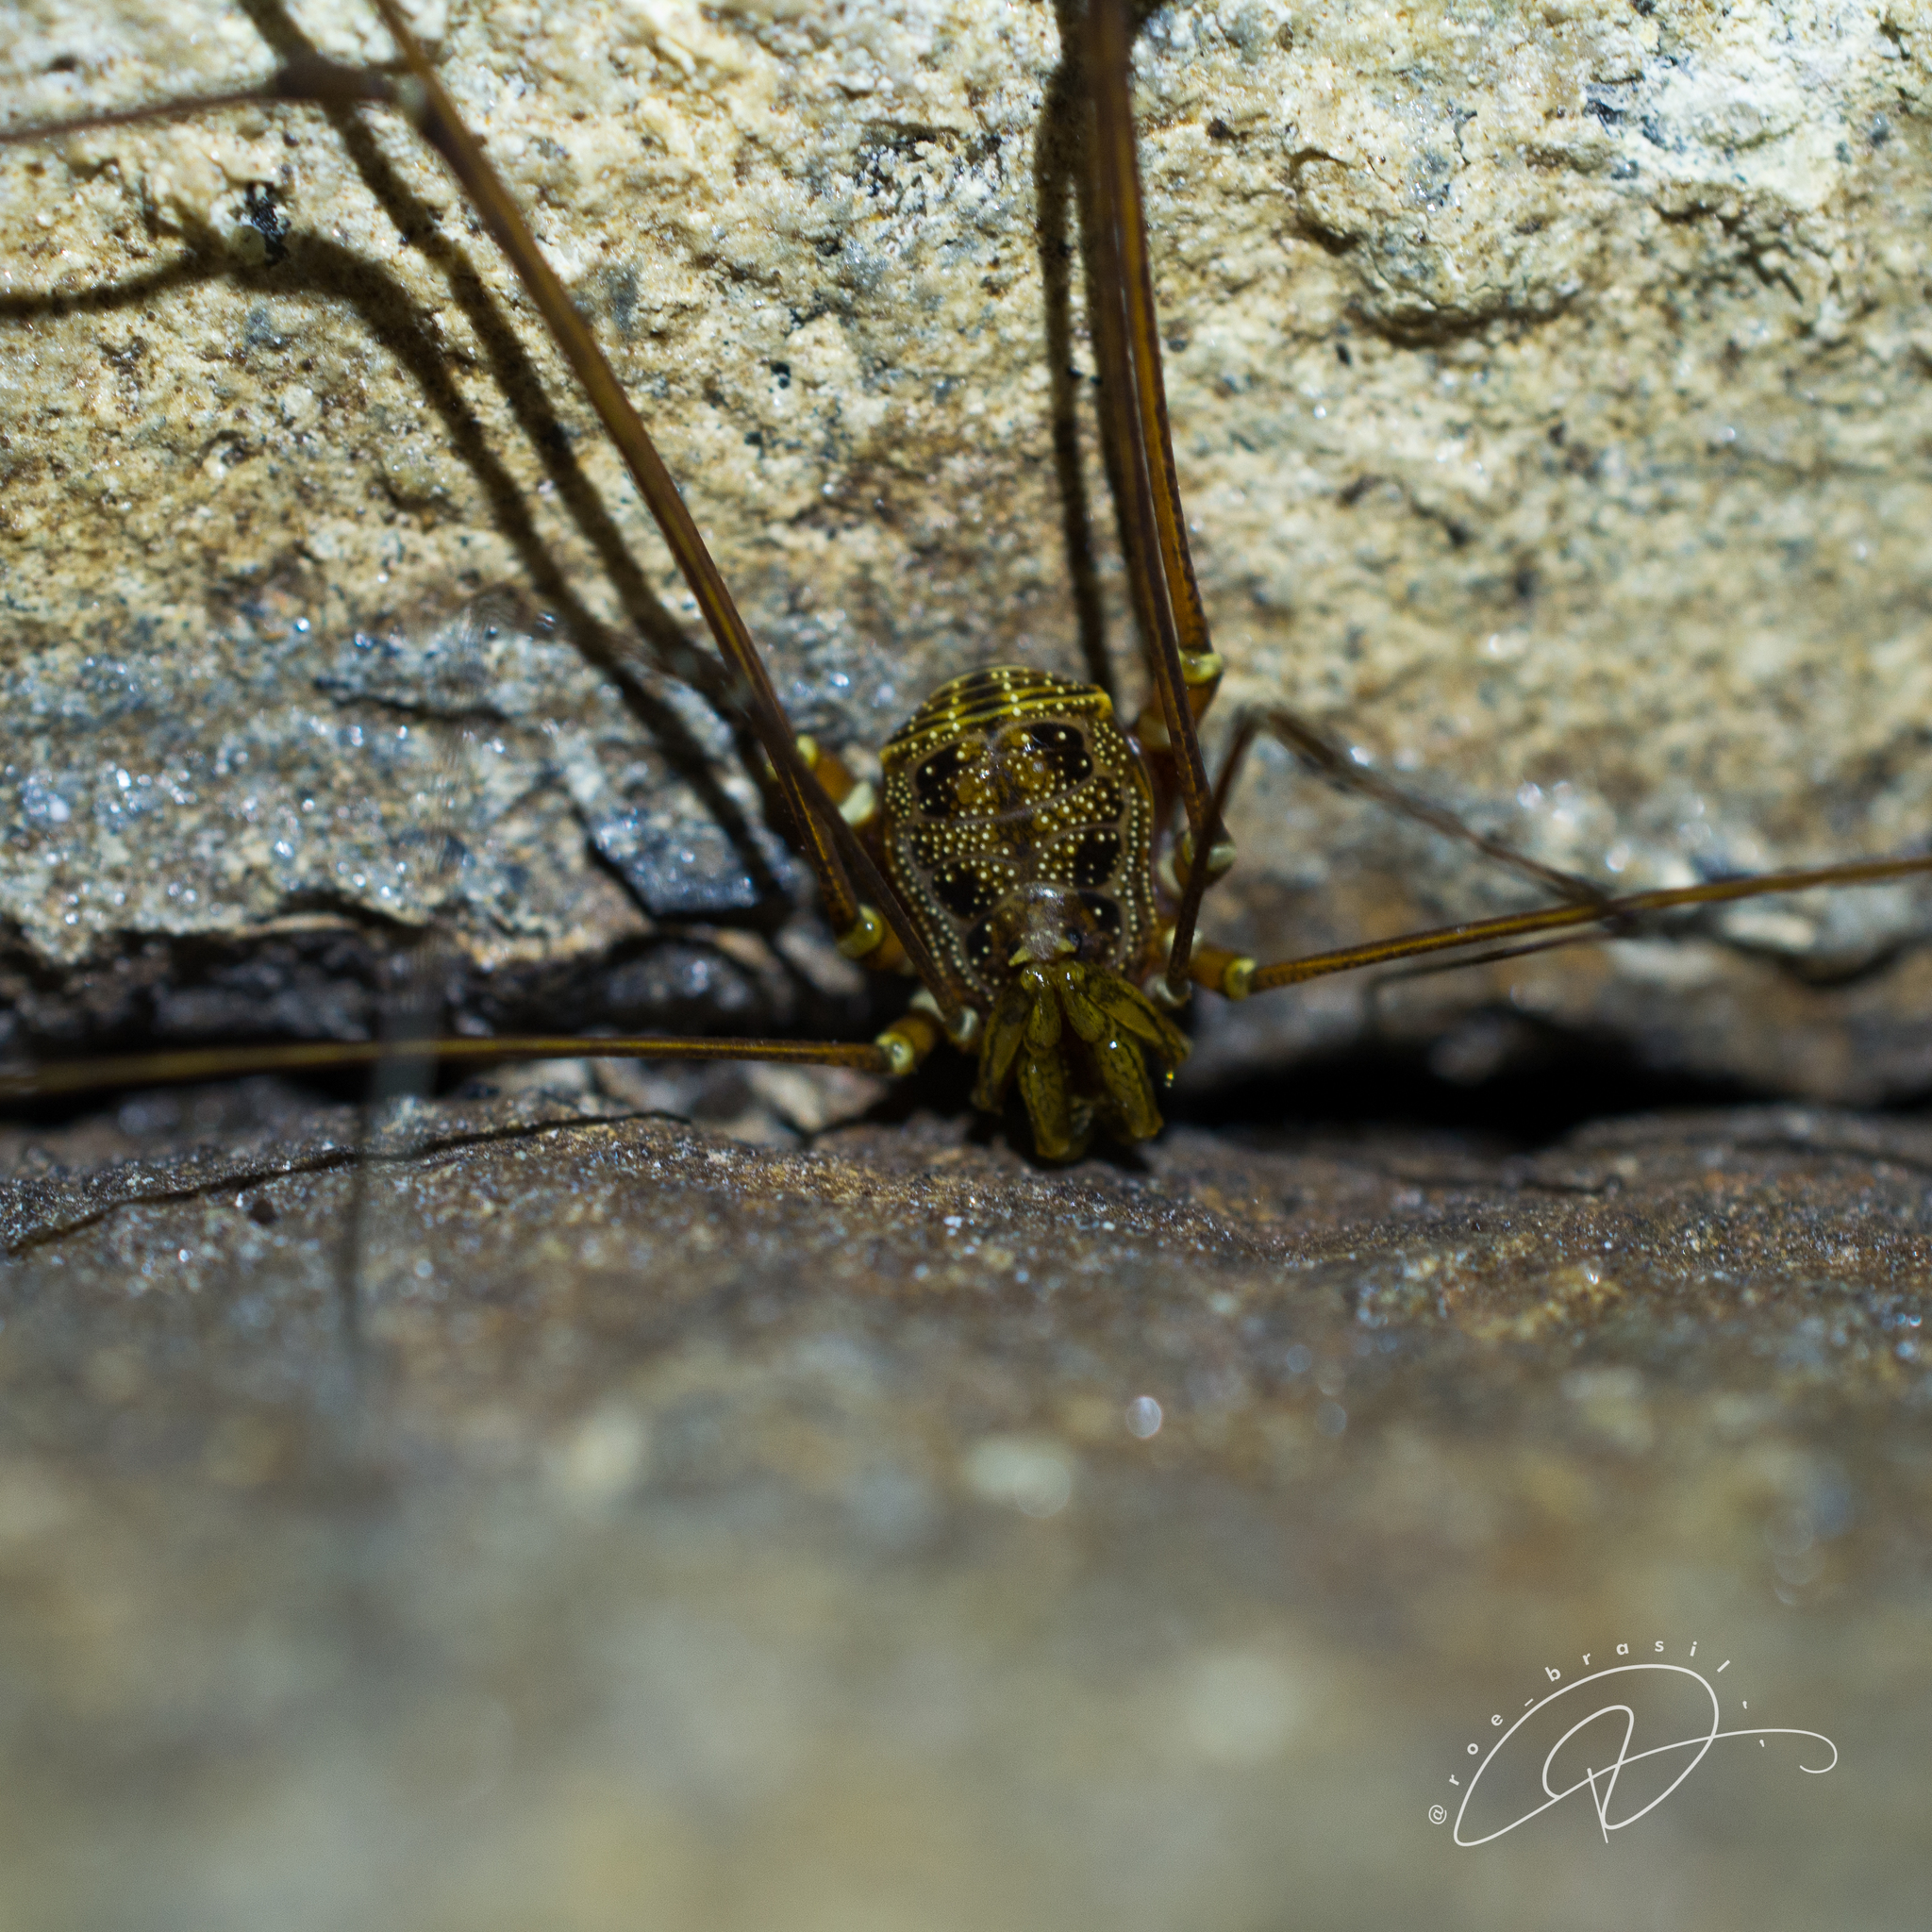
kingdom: Animalia
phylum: Arthropoda
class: Arachnida
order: Opiliones
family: Gonyleptidae
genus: Mitobates
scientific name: Mitobates triangulus
